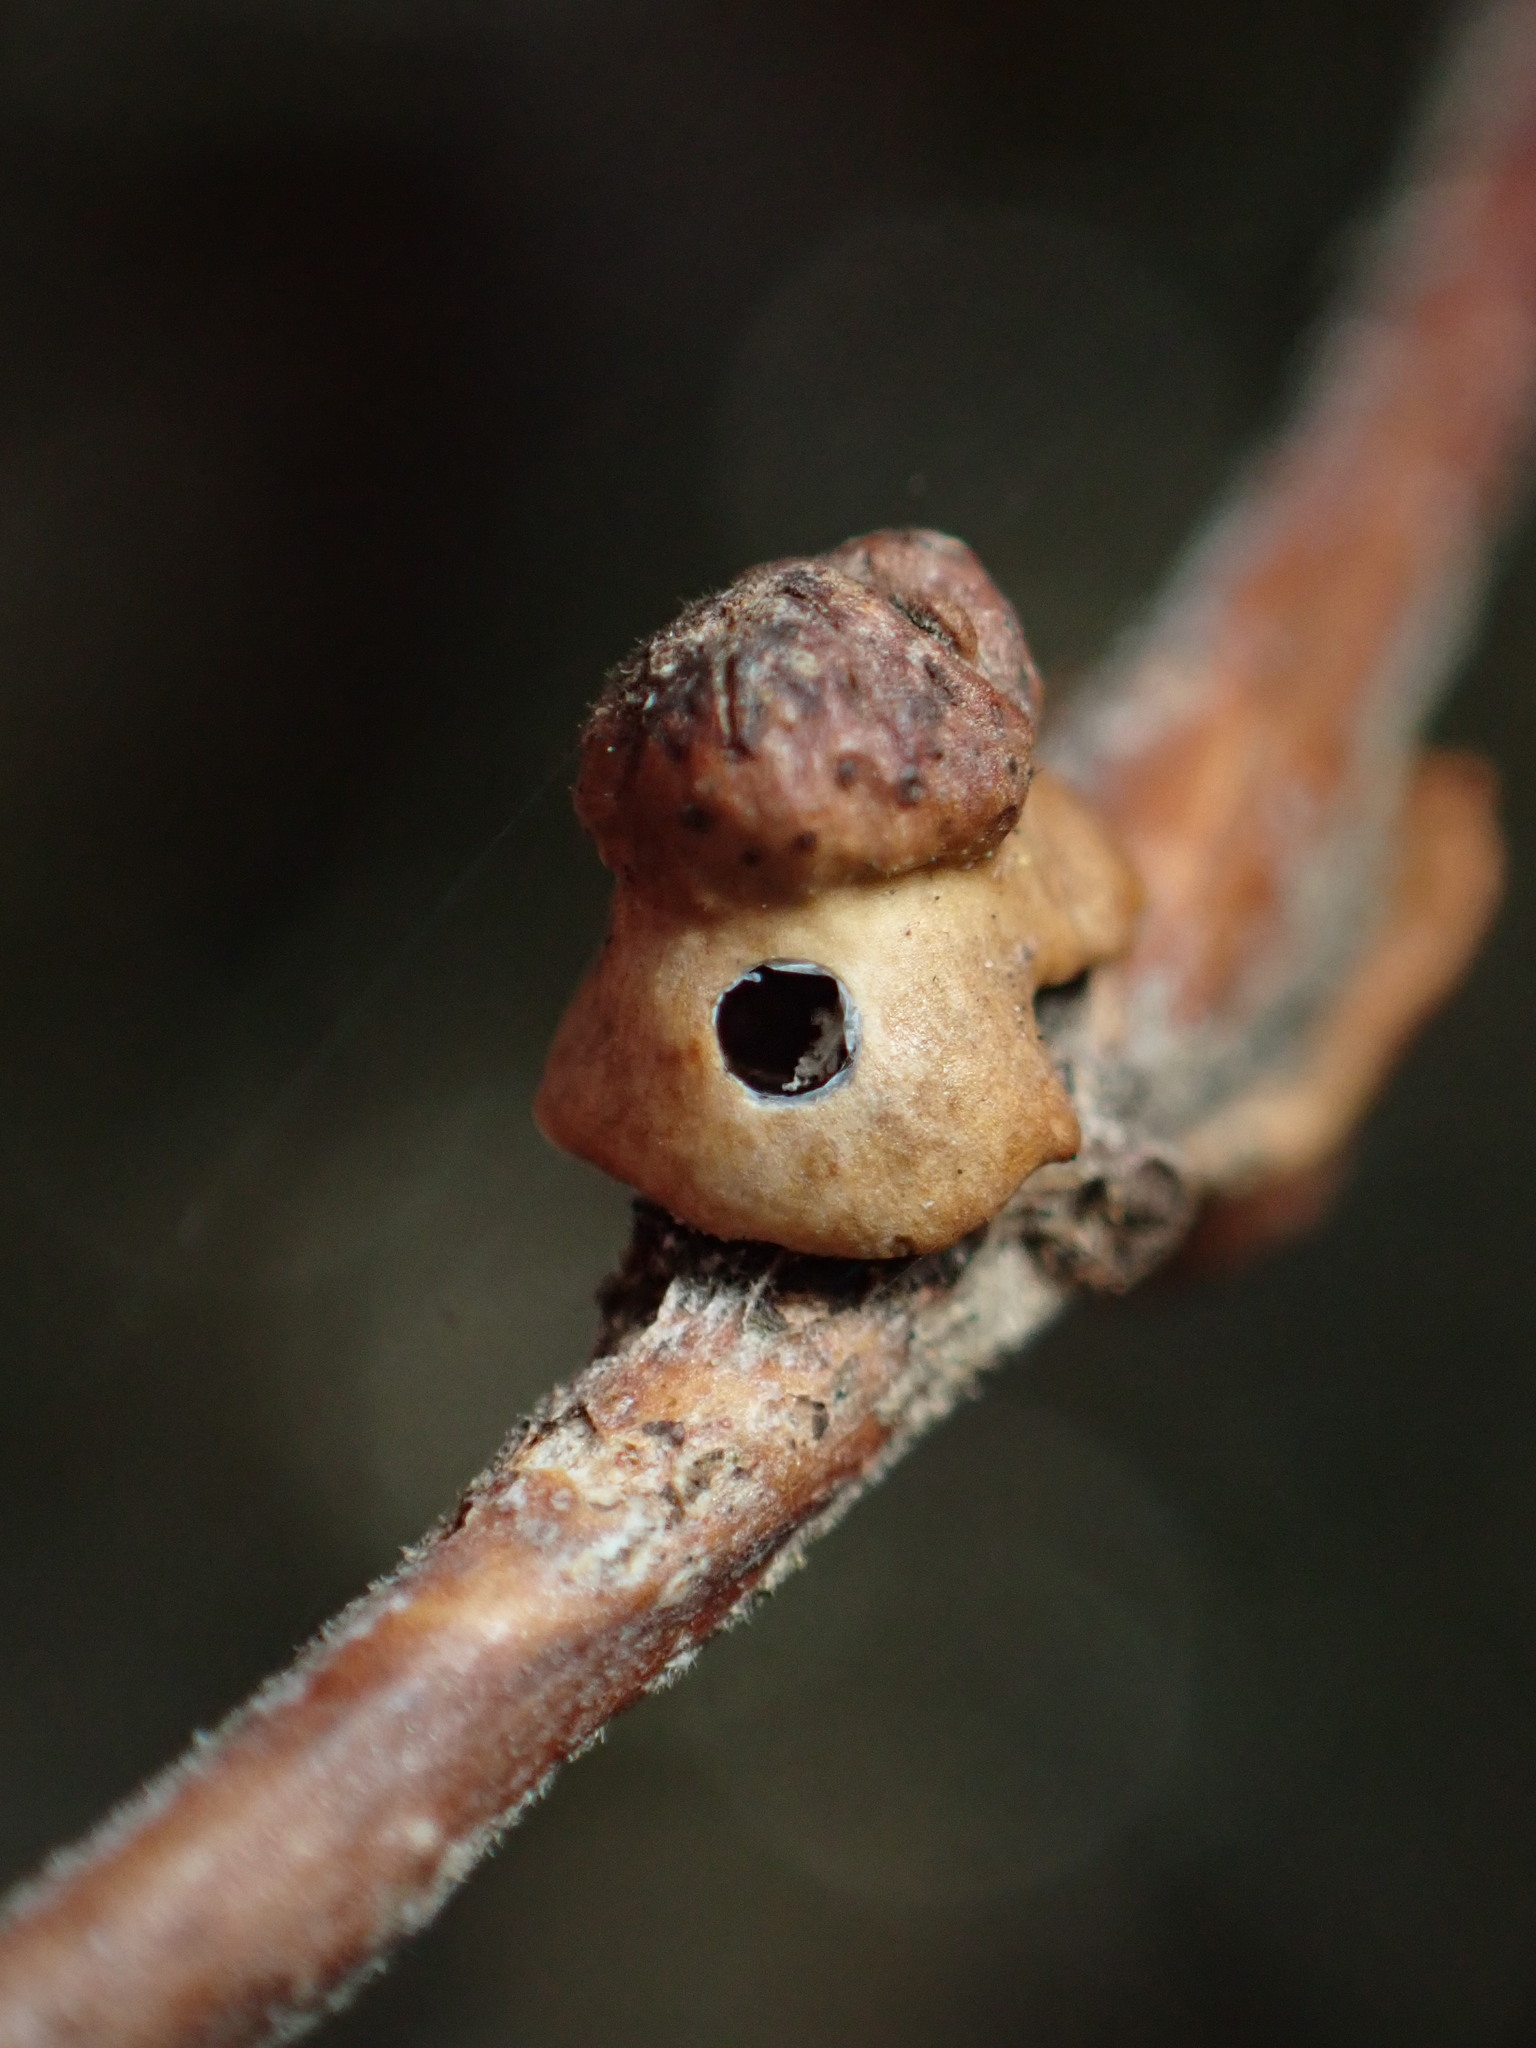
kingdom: Animalia
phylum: Arthropoda
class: Insecta
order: Hymenoptera
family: Cynipidae
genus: Disholcaspis
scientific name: Disholcaspis prehensa
